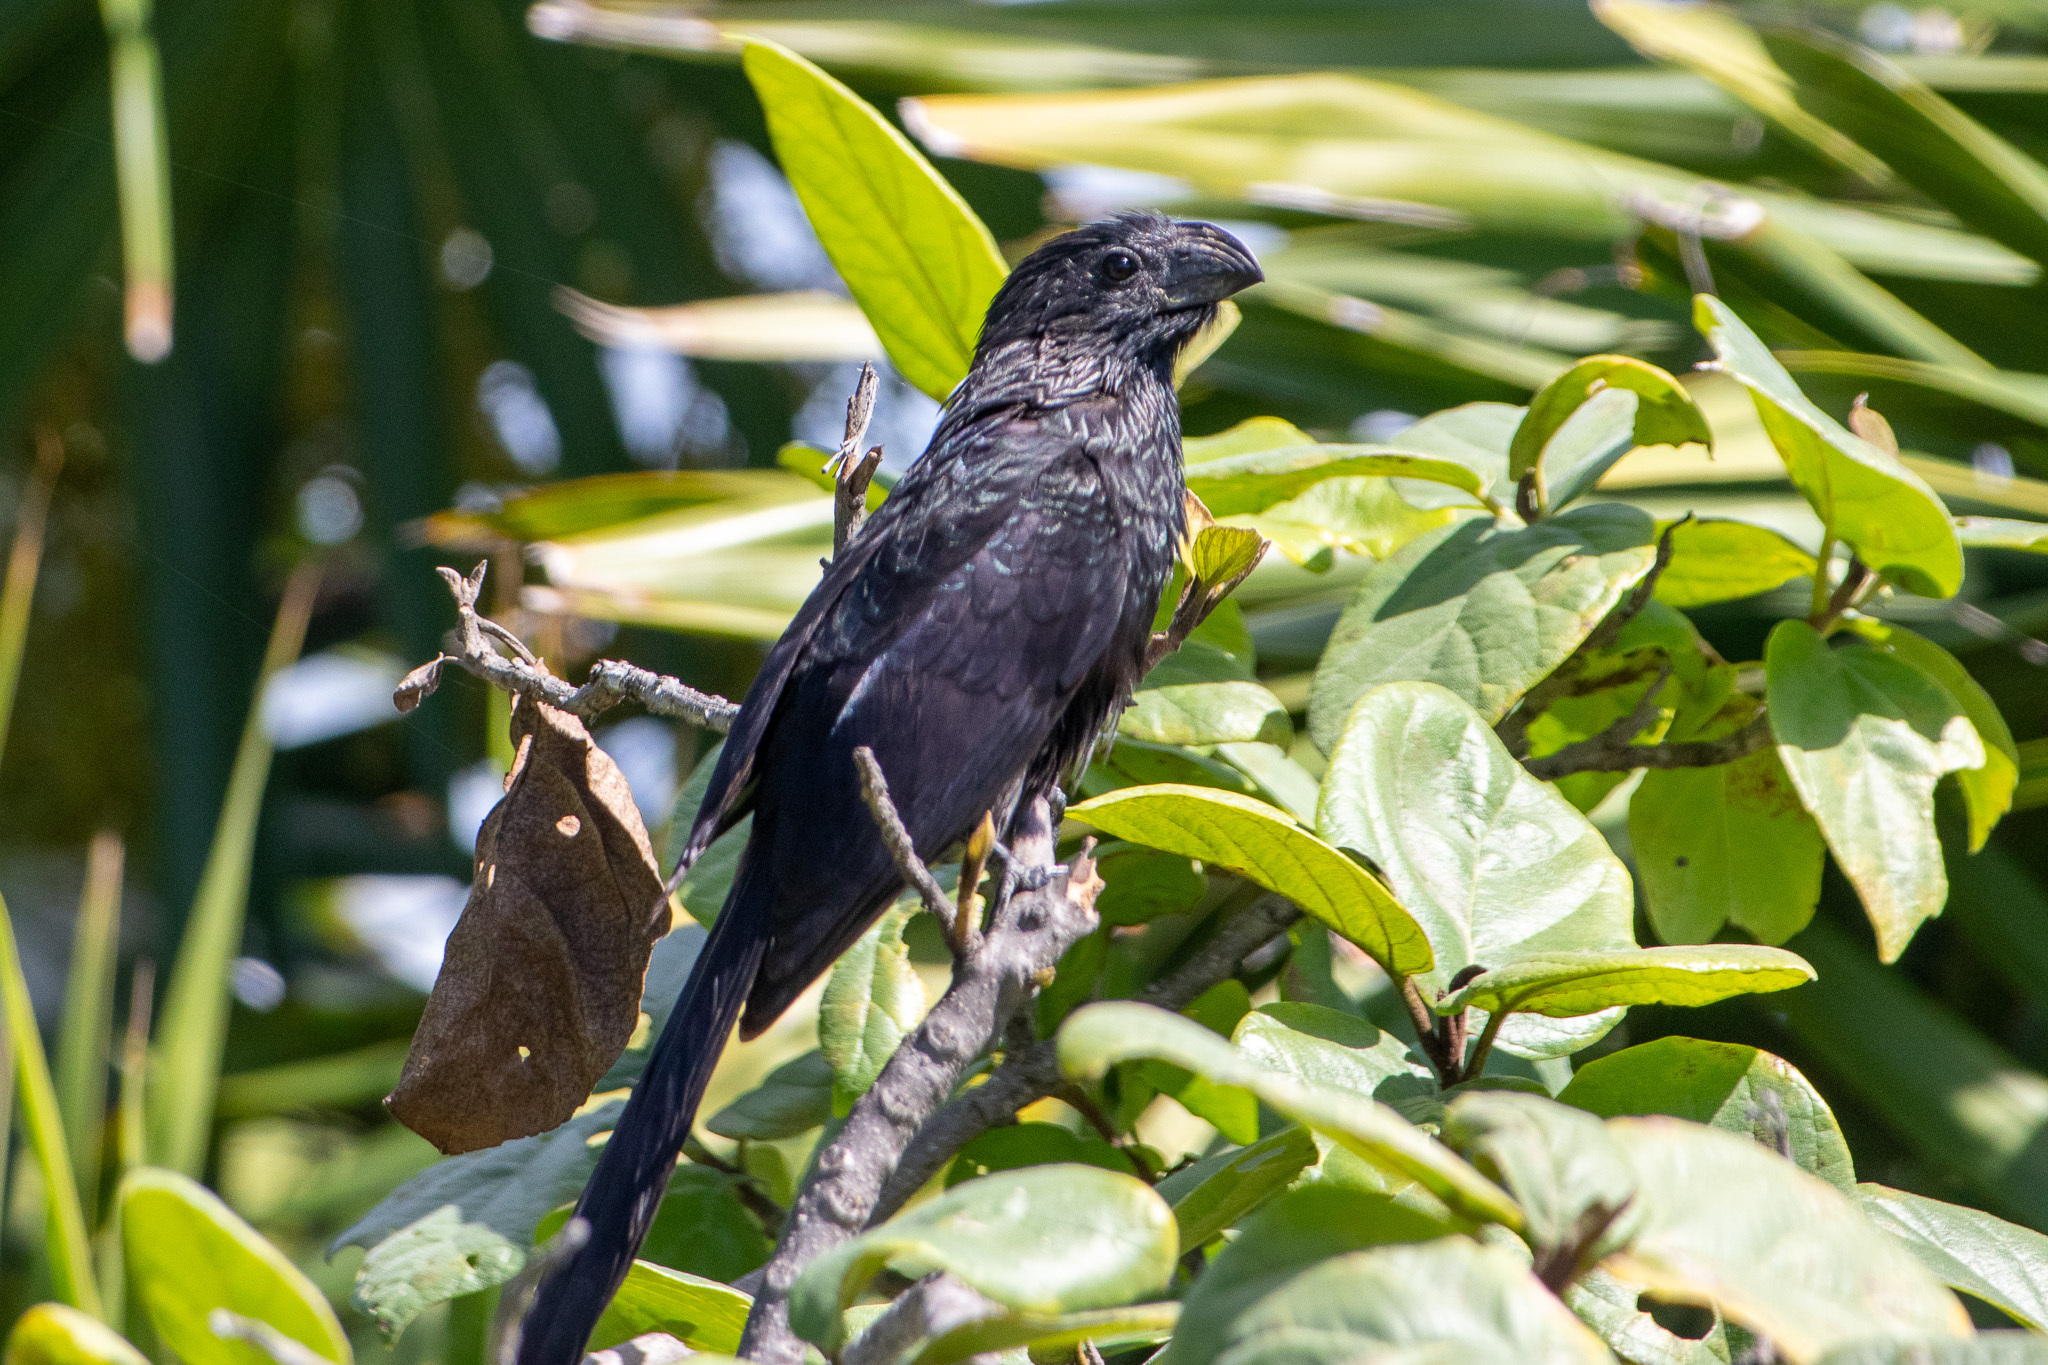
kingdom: Animalia
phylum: Chordata
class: Aves
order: Cuculiformes
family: Cuculidae
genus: Crotophaga
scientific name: Crotophaga sulcirostris
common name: Groove-billed ani
